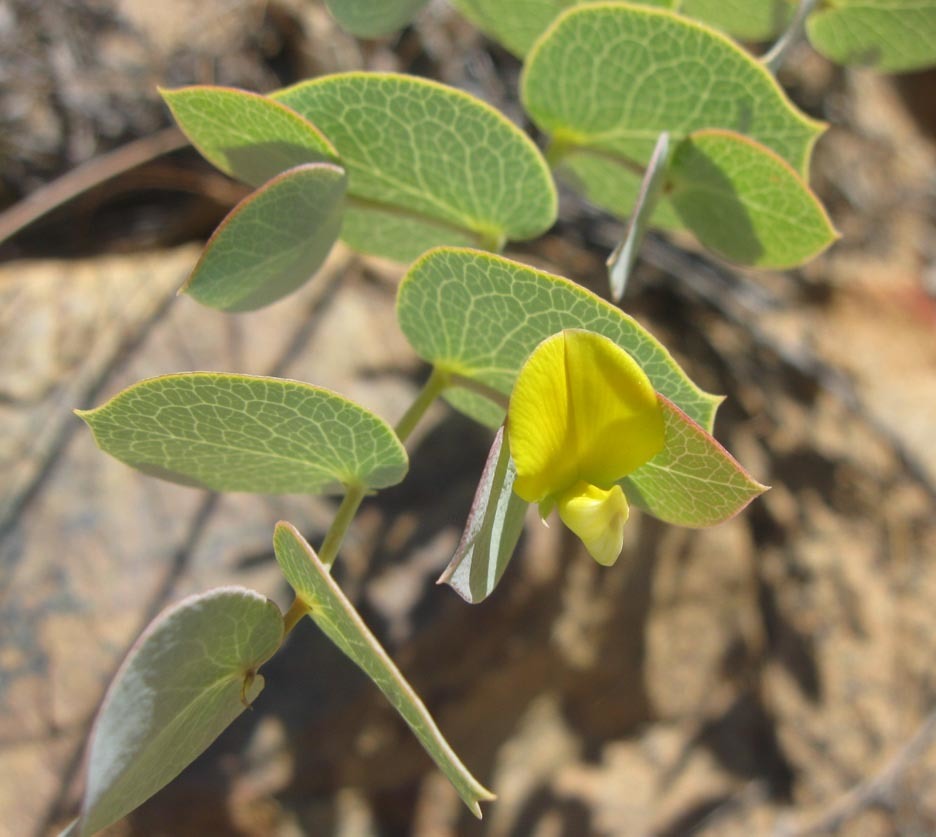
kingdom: Plantae
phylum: Tracheophyta
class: Magnoliopsida
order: Fabales
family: Fabaceae
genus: Rafnia
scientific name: Rafnia acuminata
